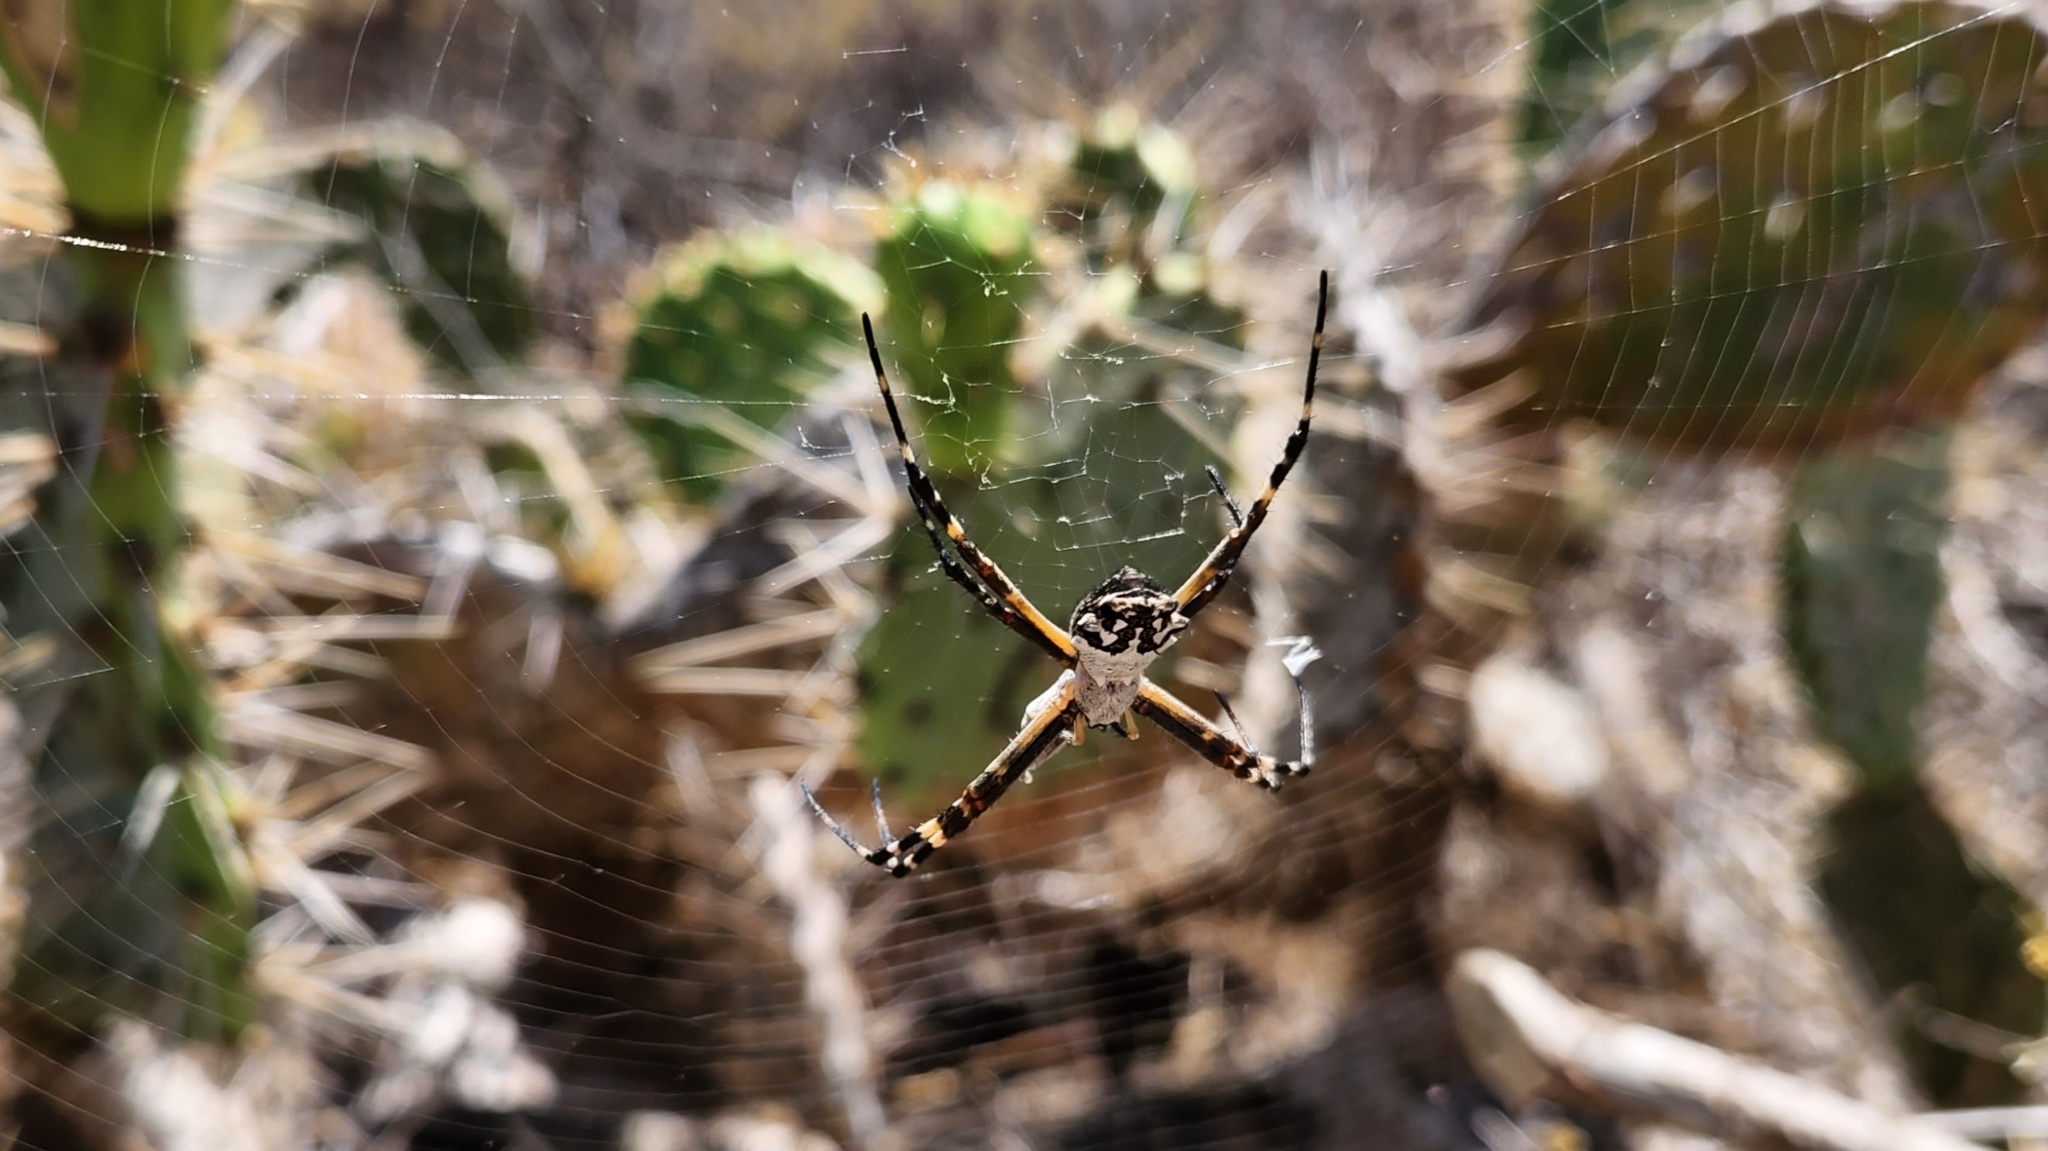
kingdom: Animalia
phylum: Arthropoda
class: Arachnida
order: Araneae
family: Araneidae
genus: Argiope
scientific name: Argiope argentata
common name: Orb weavers
